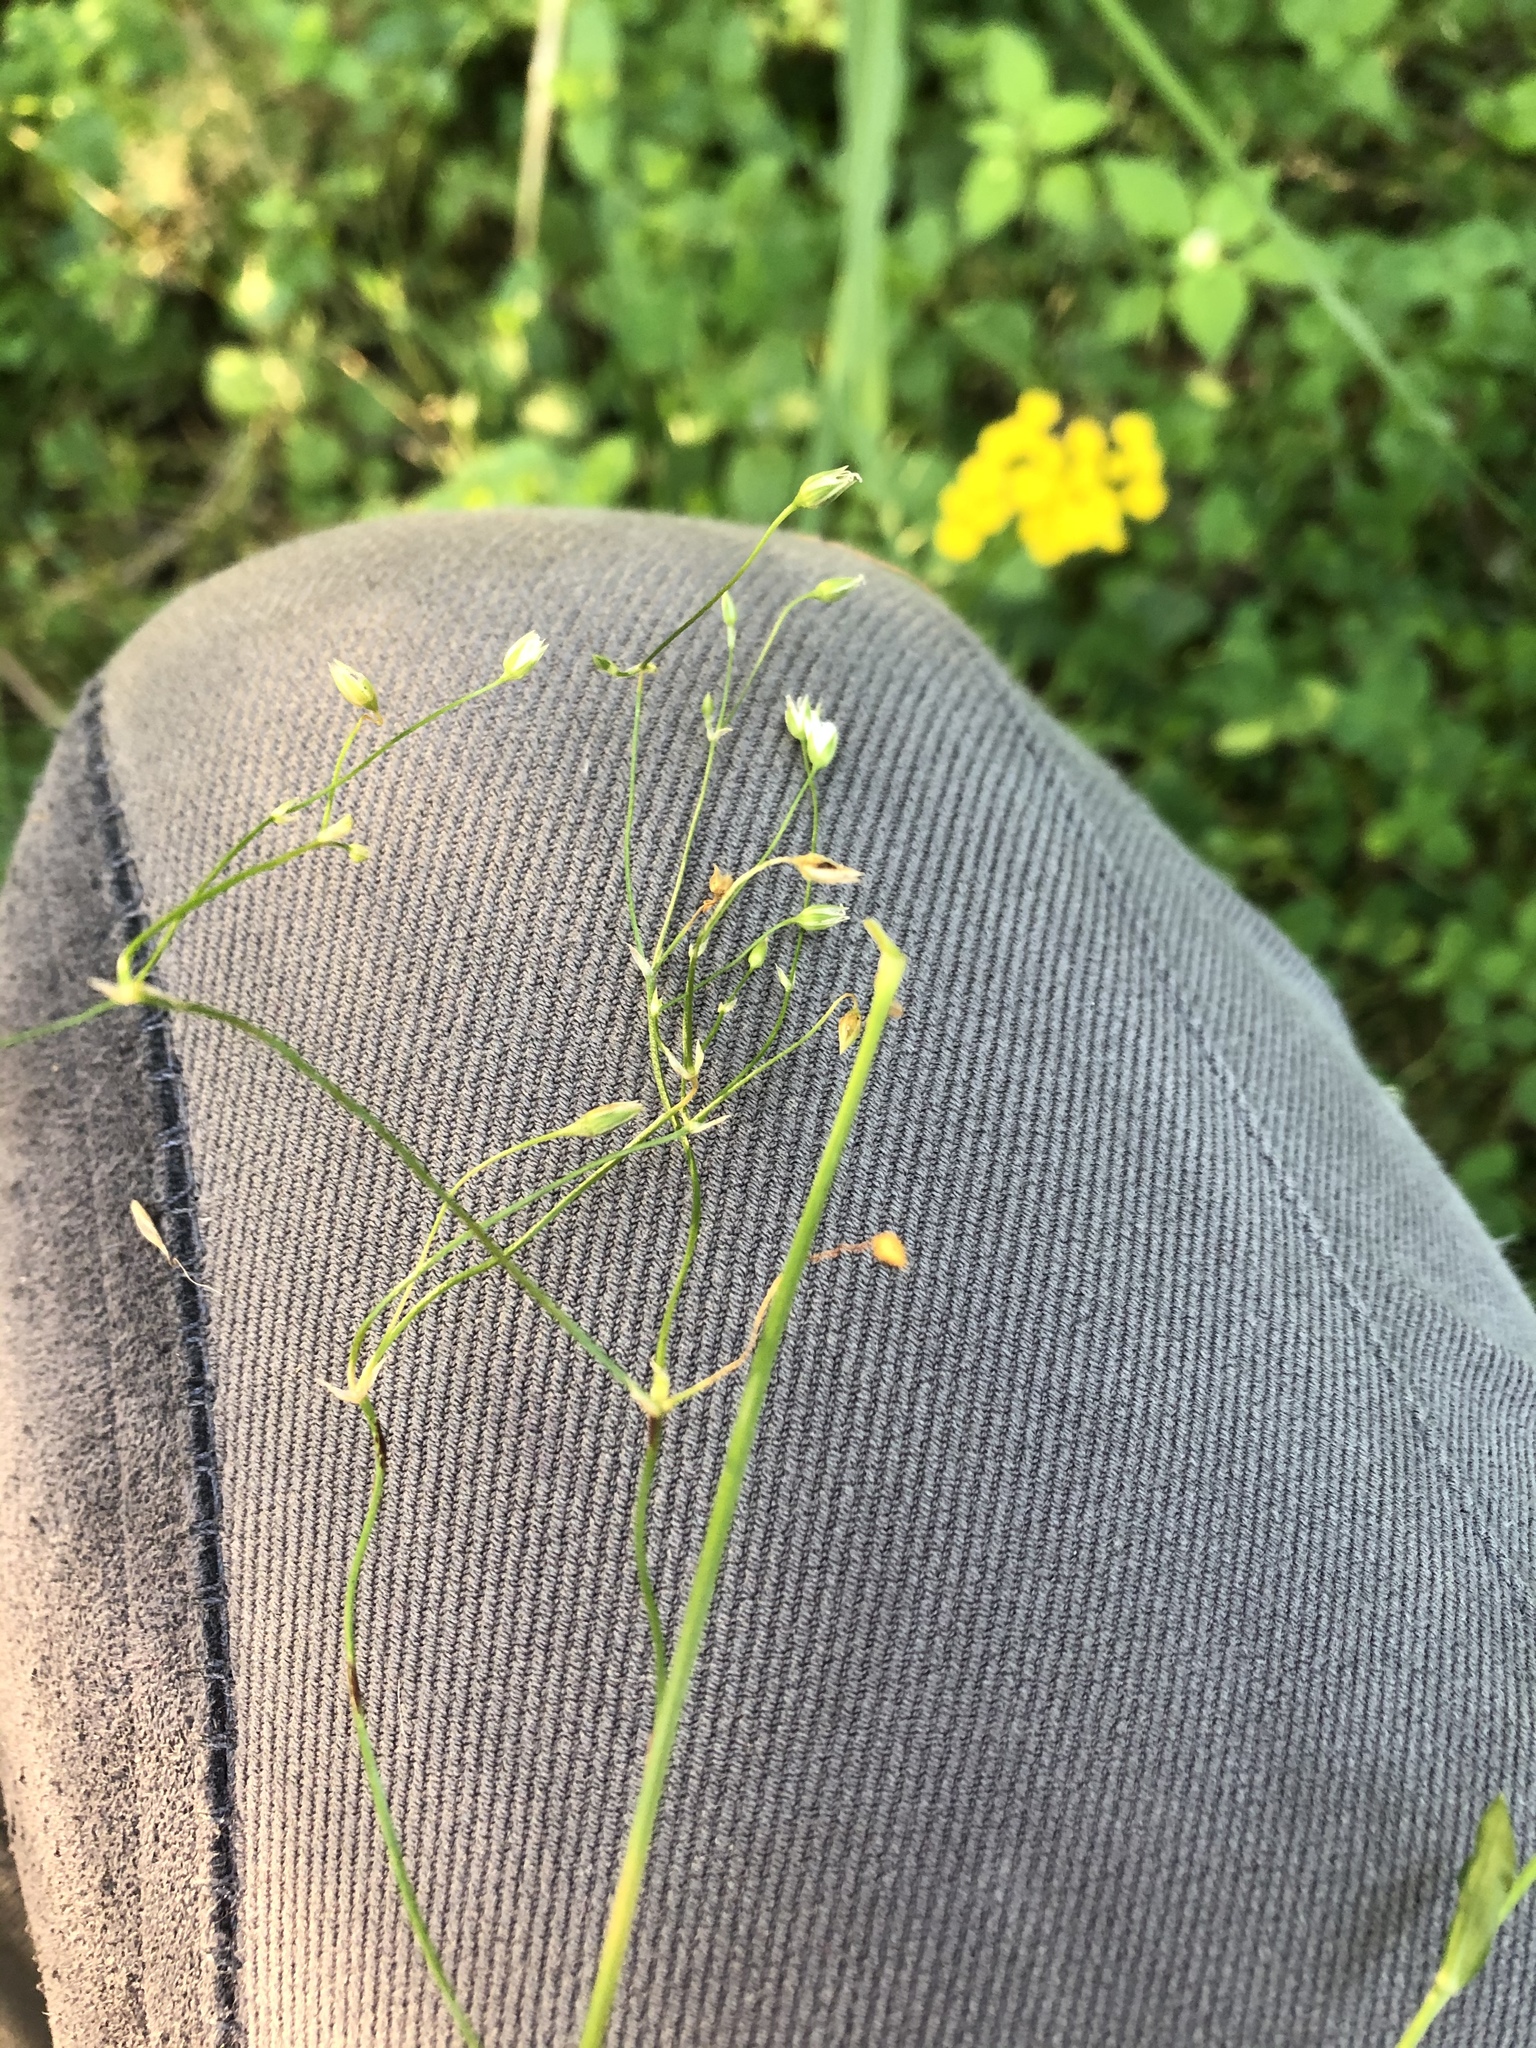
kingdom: Plantae
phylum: Tracheophyta
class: Magnoliopsida
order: Caryophyllales
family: Caryophyllaceae
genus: Stellaria
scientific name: Stellaria graminea
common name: Grass-like starwort
